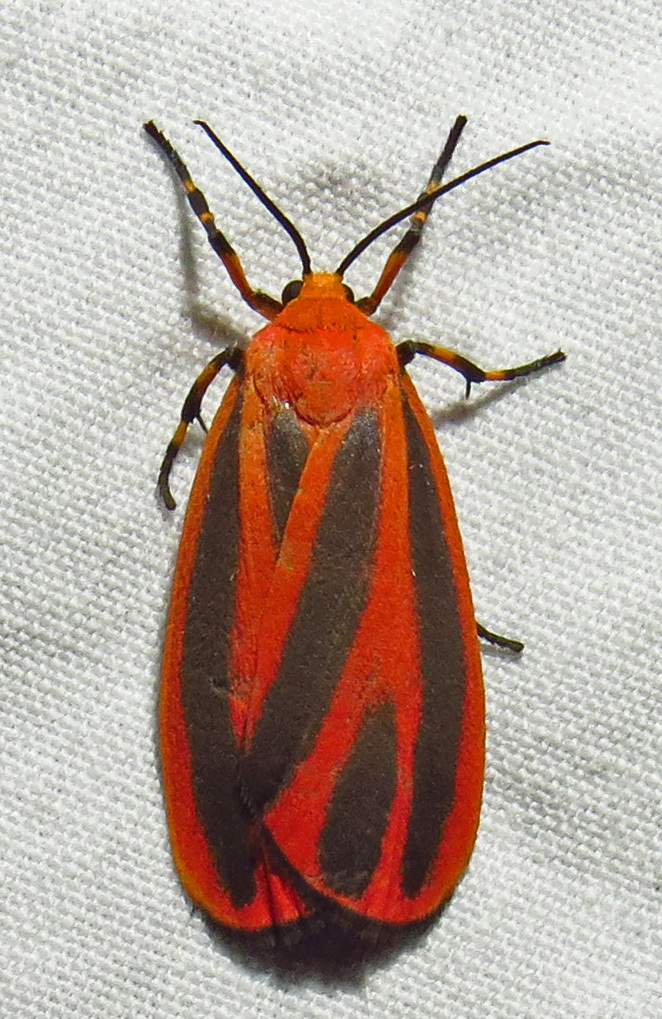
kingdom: Animalia
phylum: Arthropoda
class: Insecta
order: Lepidoptera
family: Erebidae
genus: Hypoprepia
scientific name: Hypoprepia miniata
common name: Scarlet-winged lichen moth
